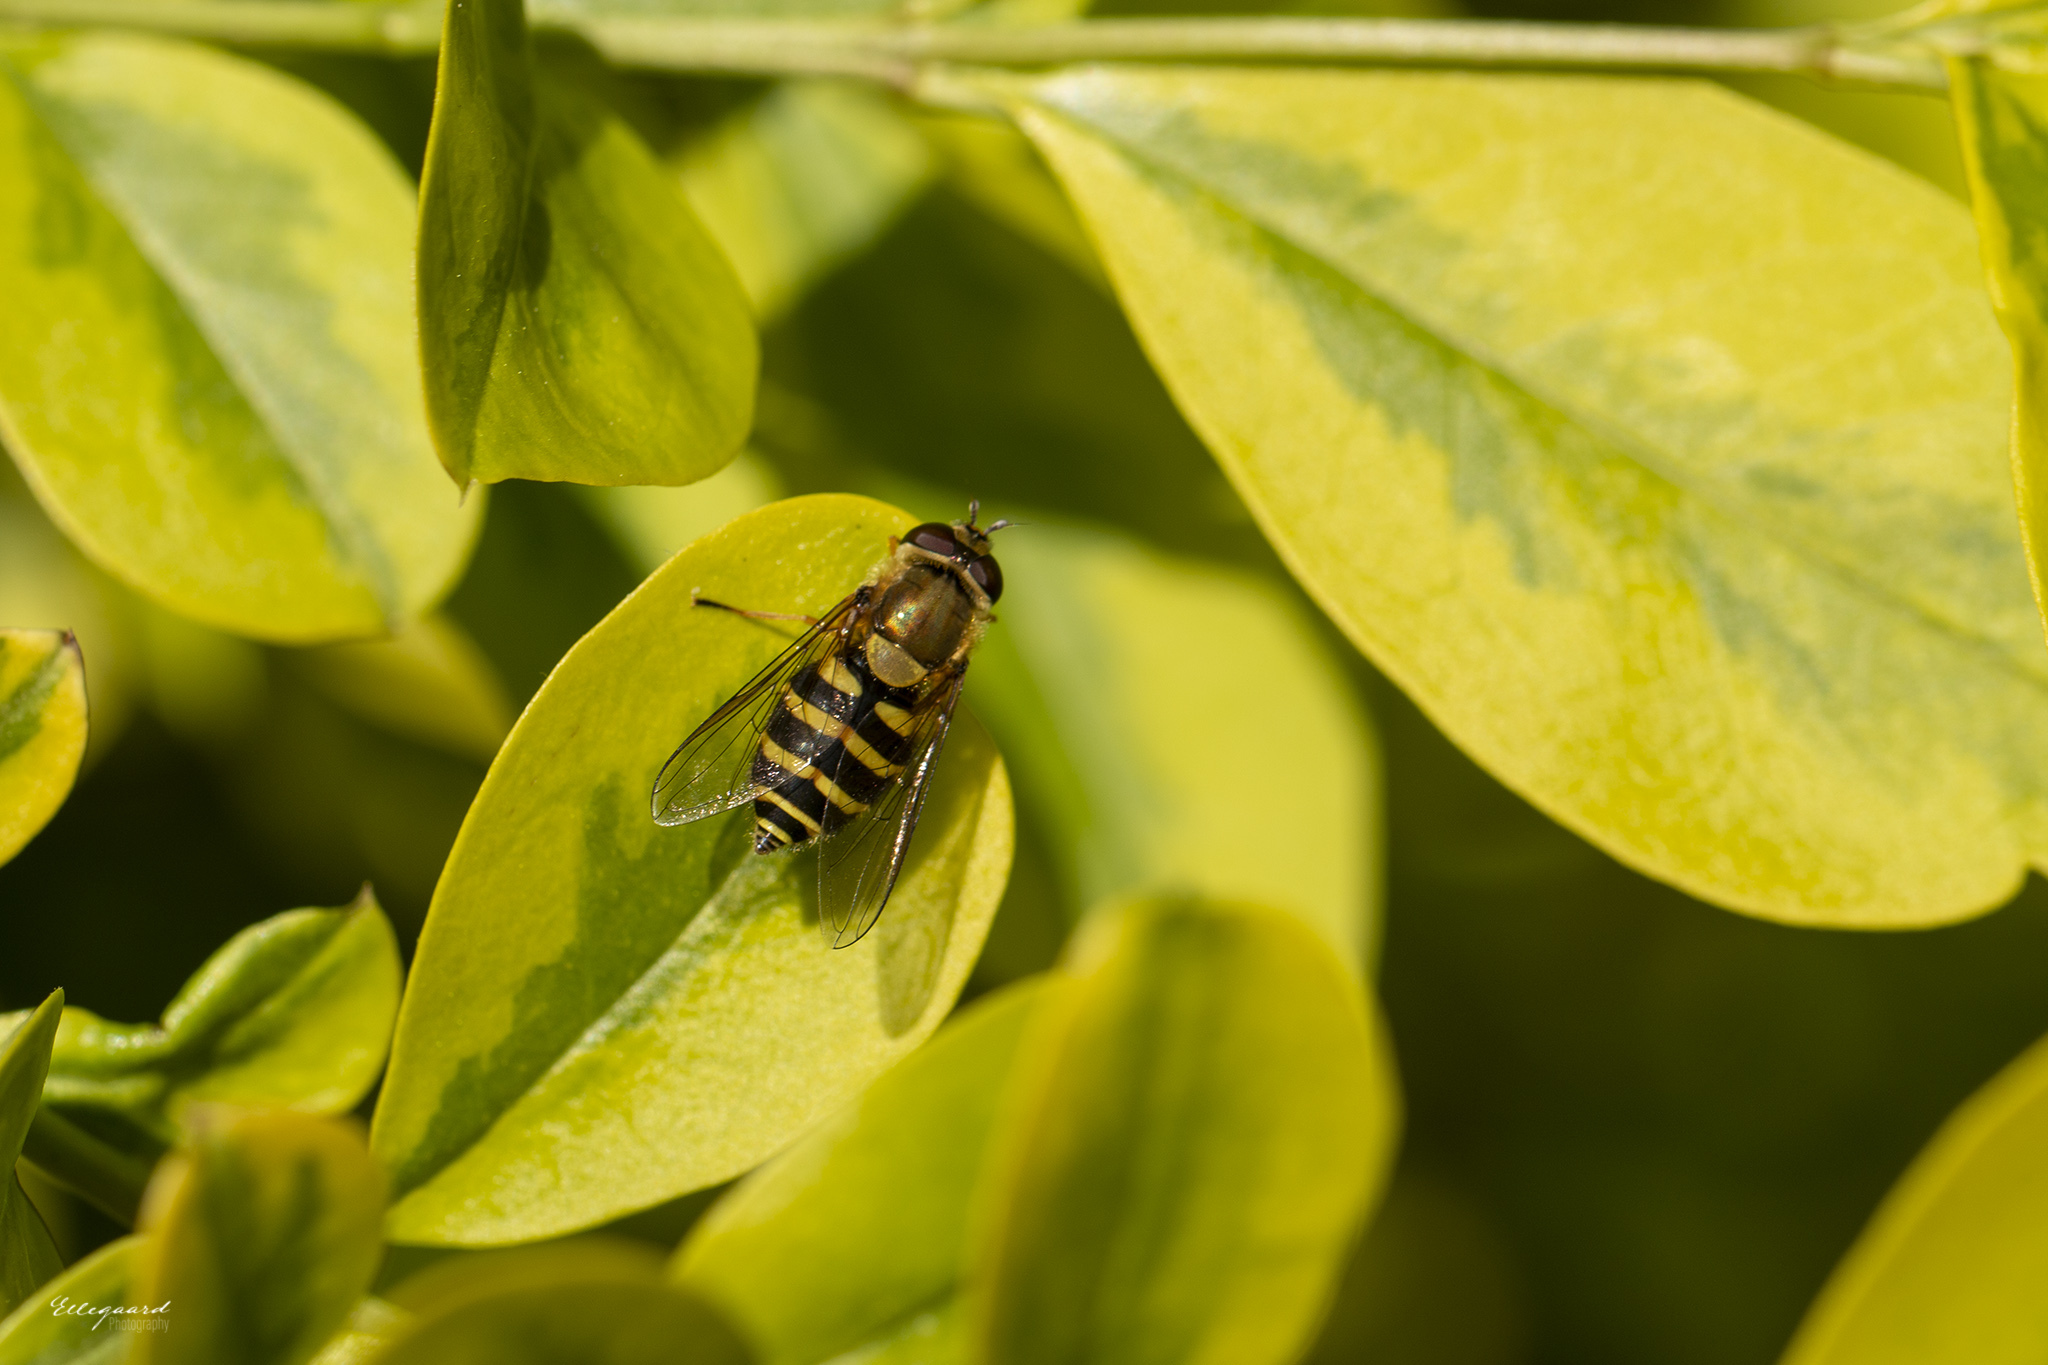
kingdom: Animalia
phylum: Arthropoda
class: Insecta
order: Diptera
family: Syrphidae
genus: Syrphus
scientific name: Syrphus
